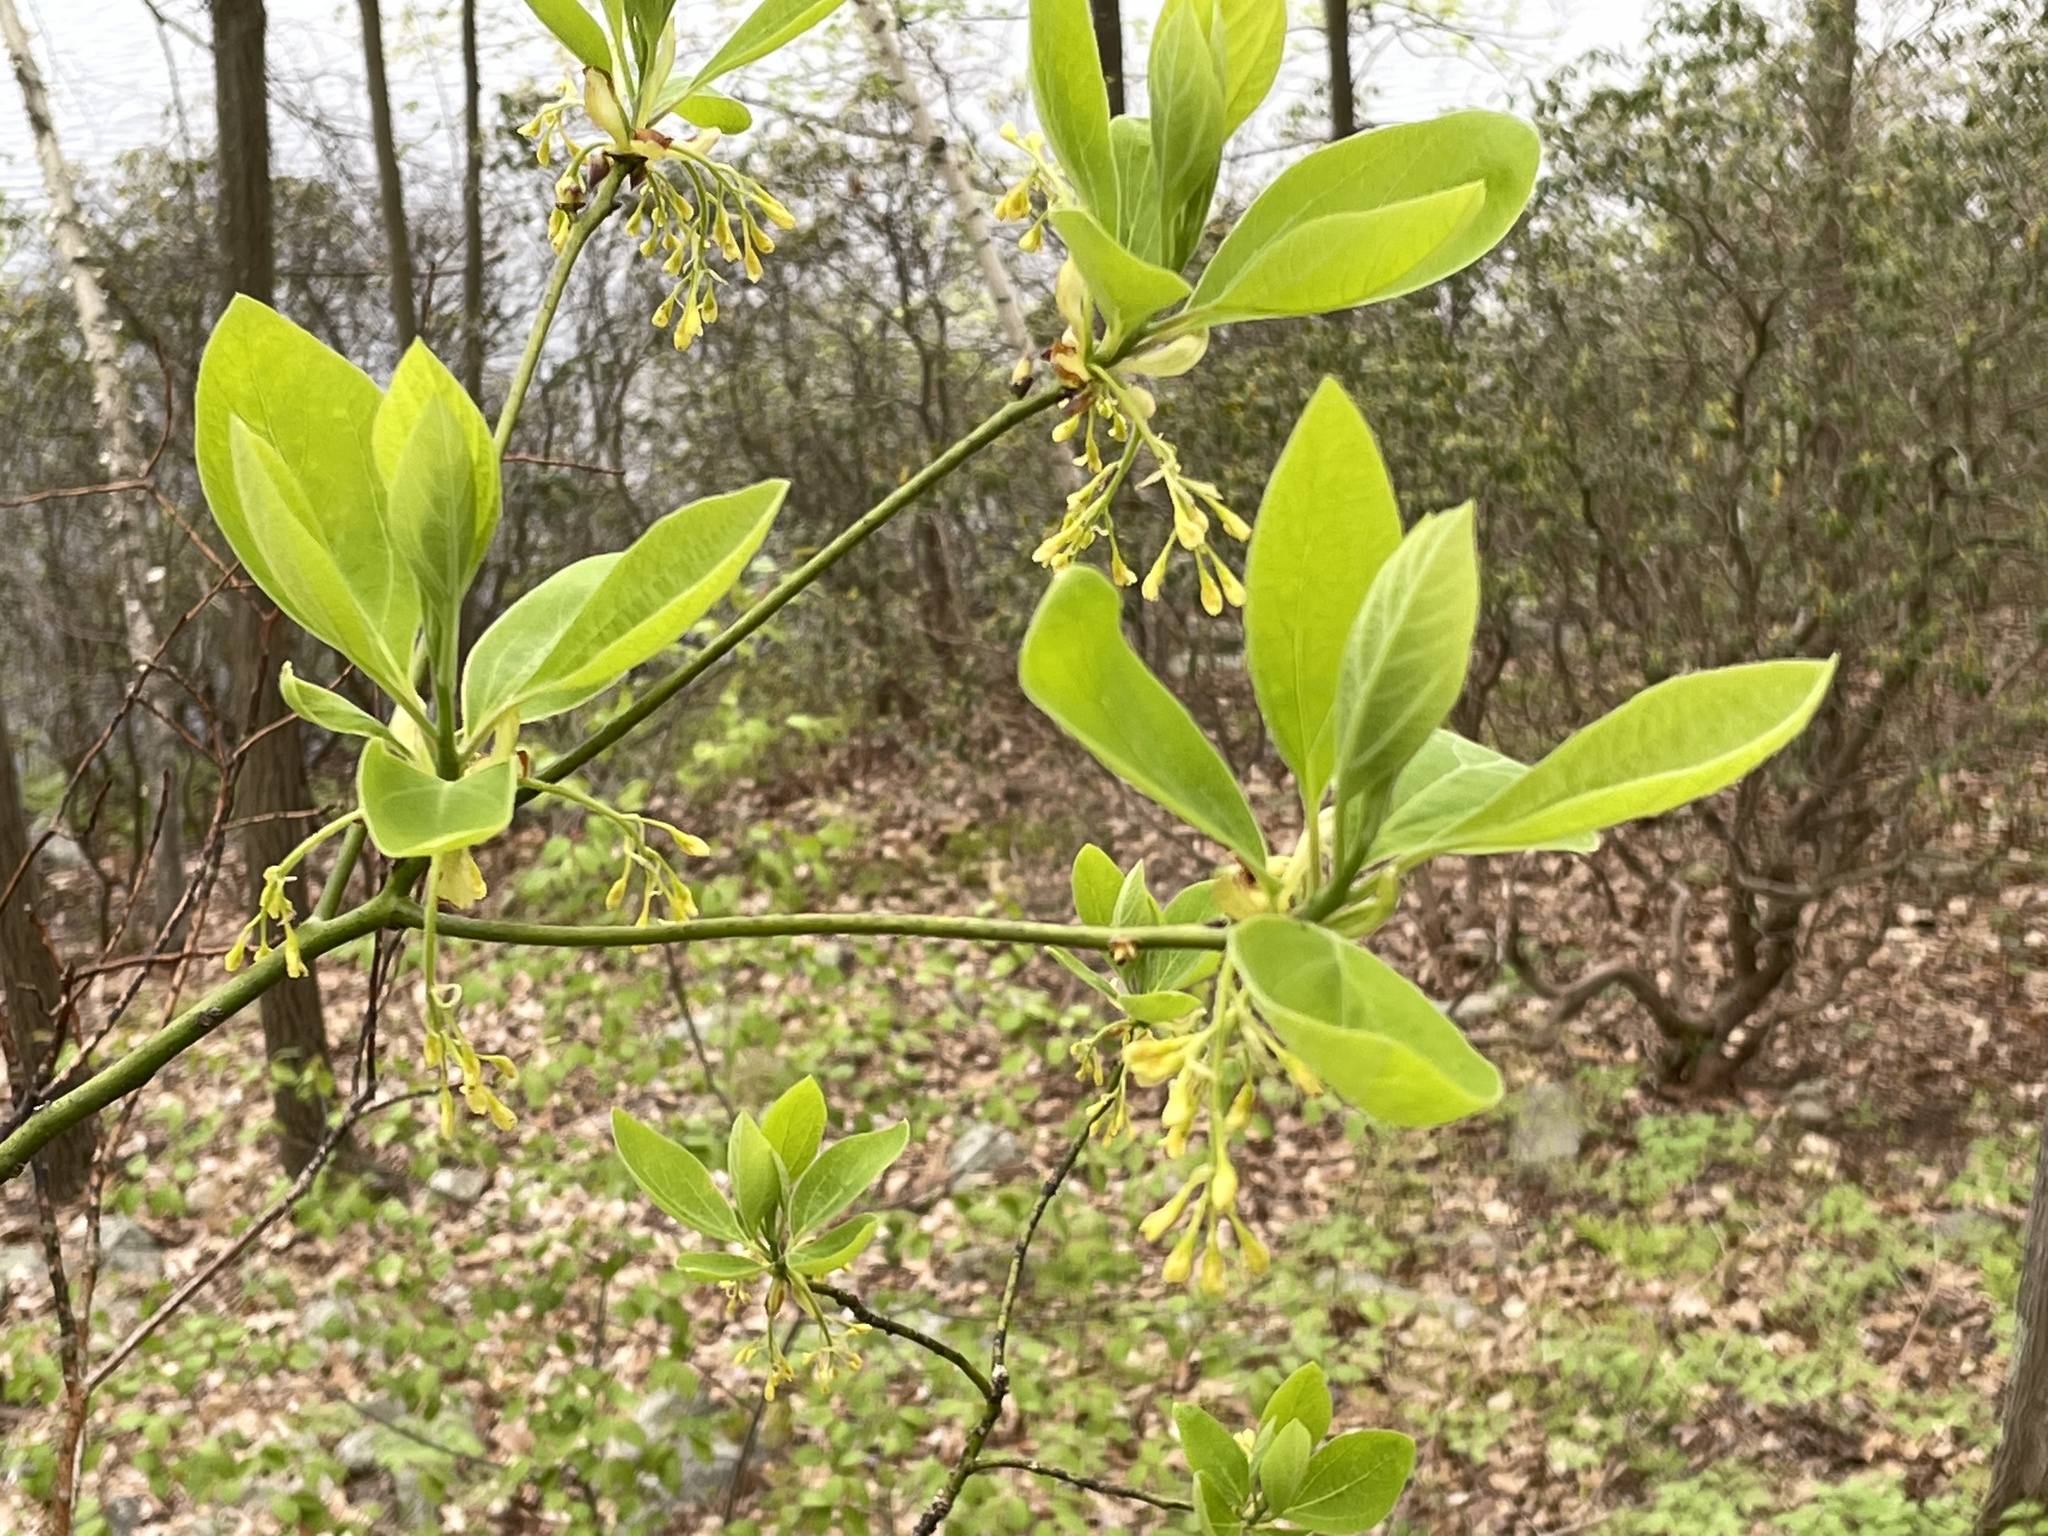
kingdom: Plantae
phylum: Tracheophyta
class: Magnoliopsida
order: Laurales
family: Lauraceae
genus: Sassafras
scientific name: Sassafras albidum
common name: Sassafras
